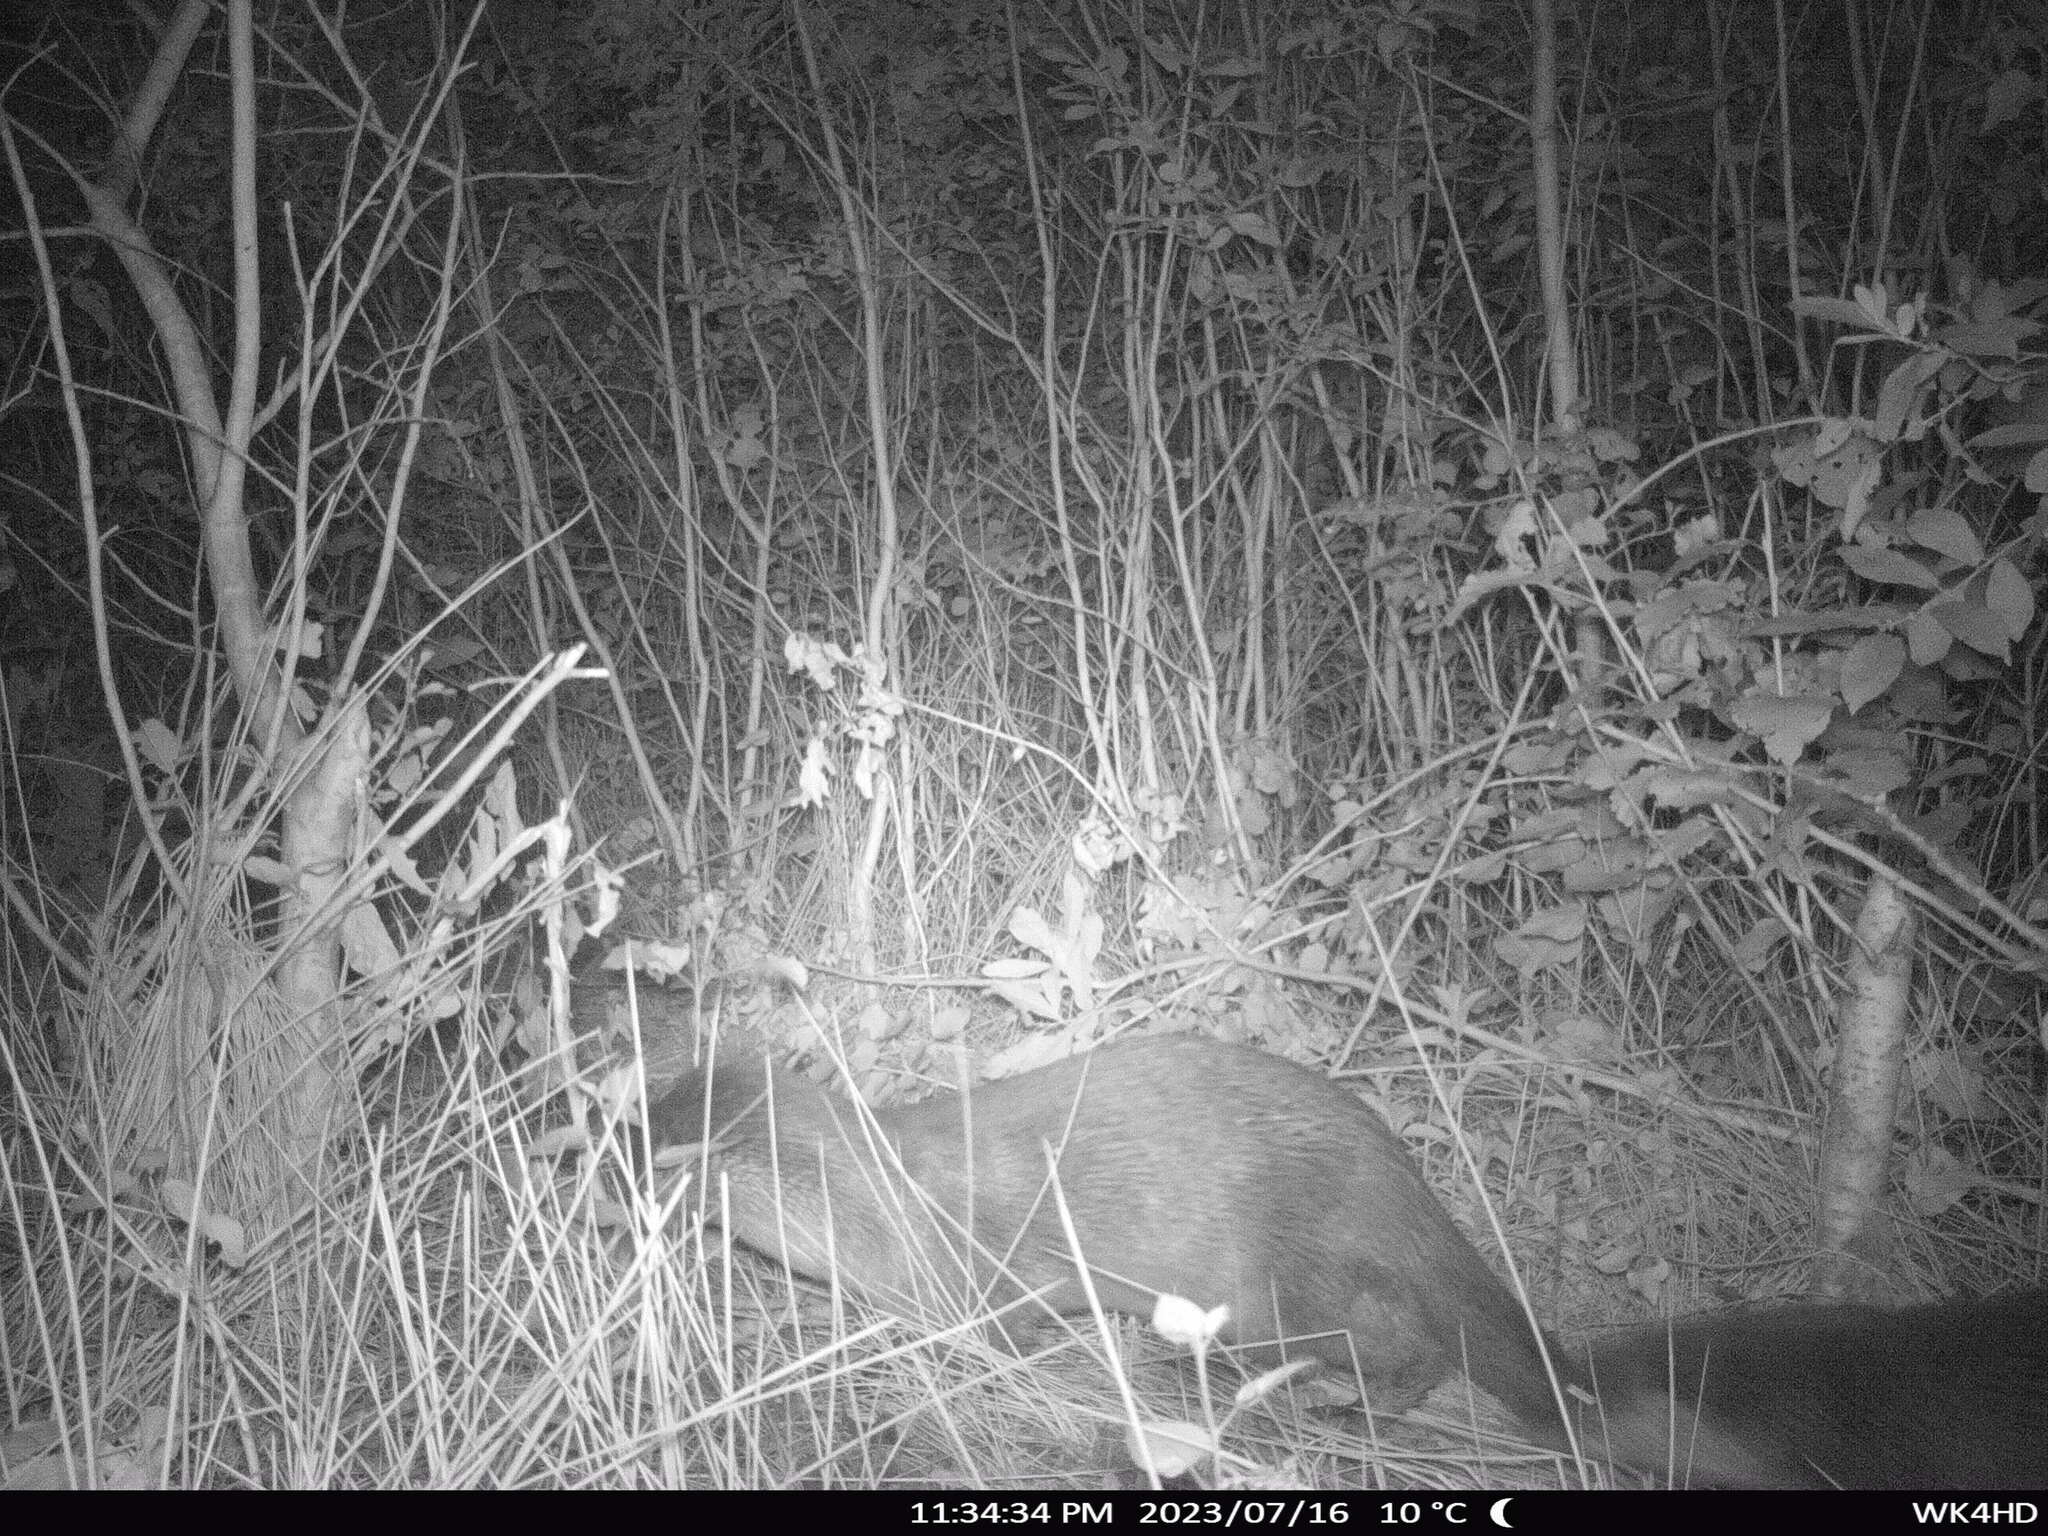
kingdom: Animalia
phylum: Chordata
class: Mammalia
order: Carnivora
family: Mustelidae
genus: Lutra
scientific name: Lutra lutra
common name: European otter
